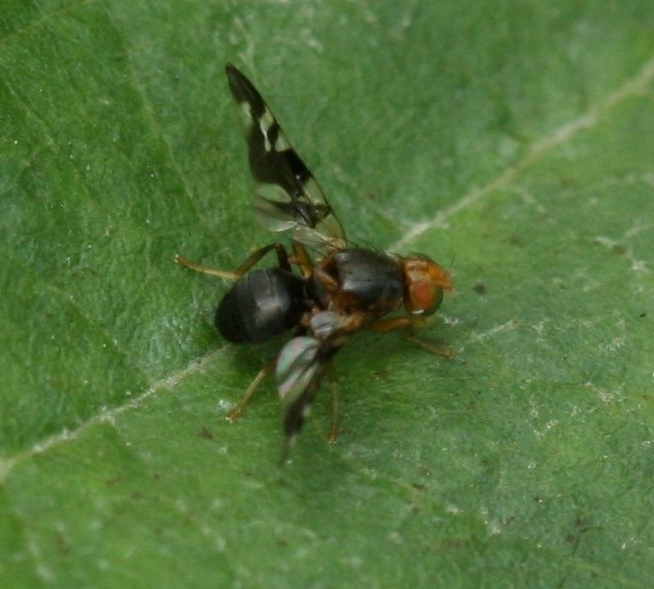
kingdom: Animalia
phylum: Arthropoda
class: Insecta
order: Diptera
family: Tephritidae
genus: Philophylla
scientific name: Philophylla caesio
